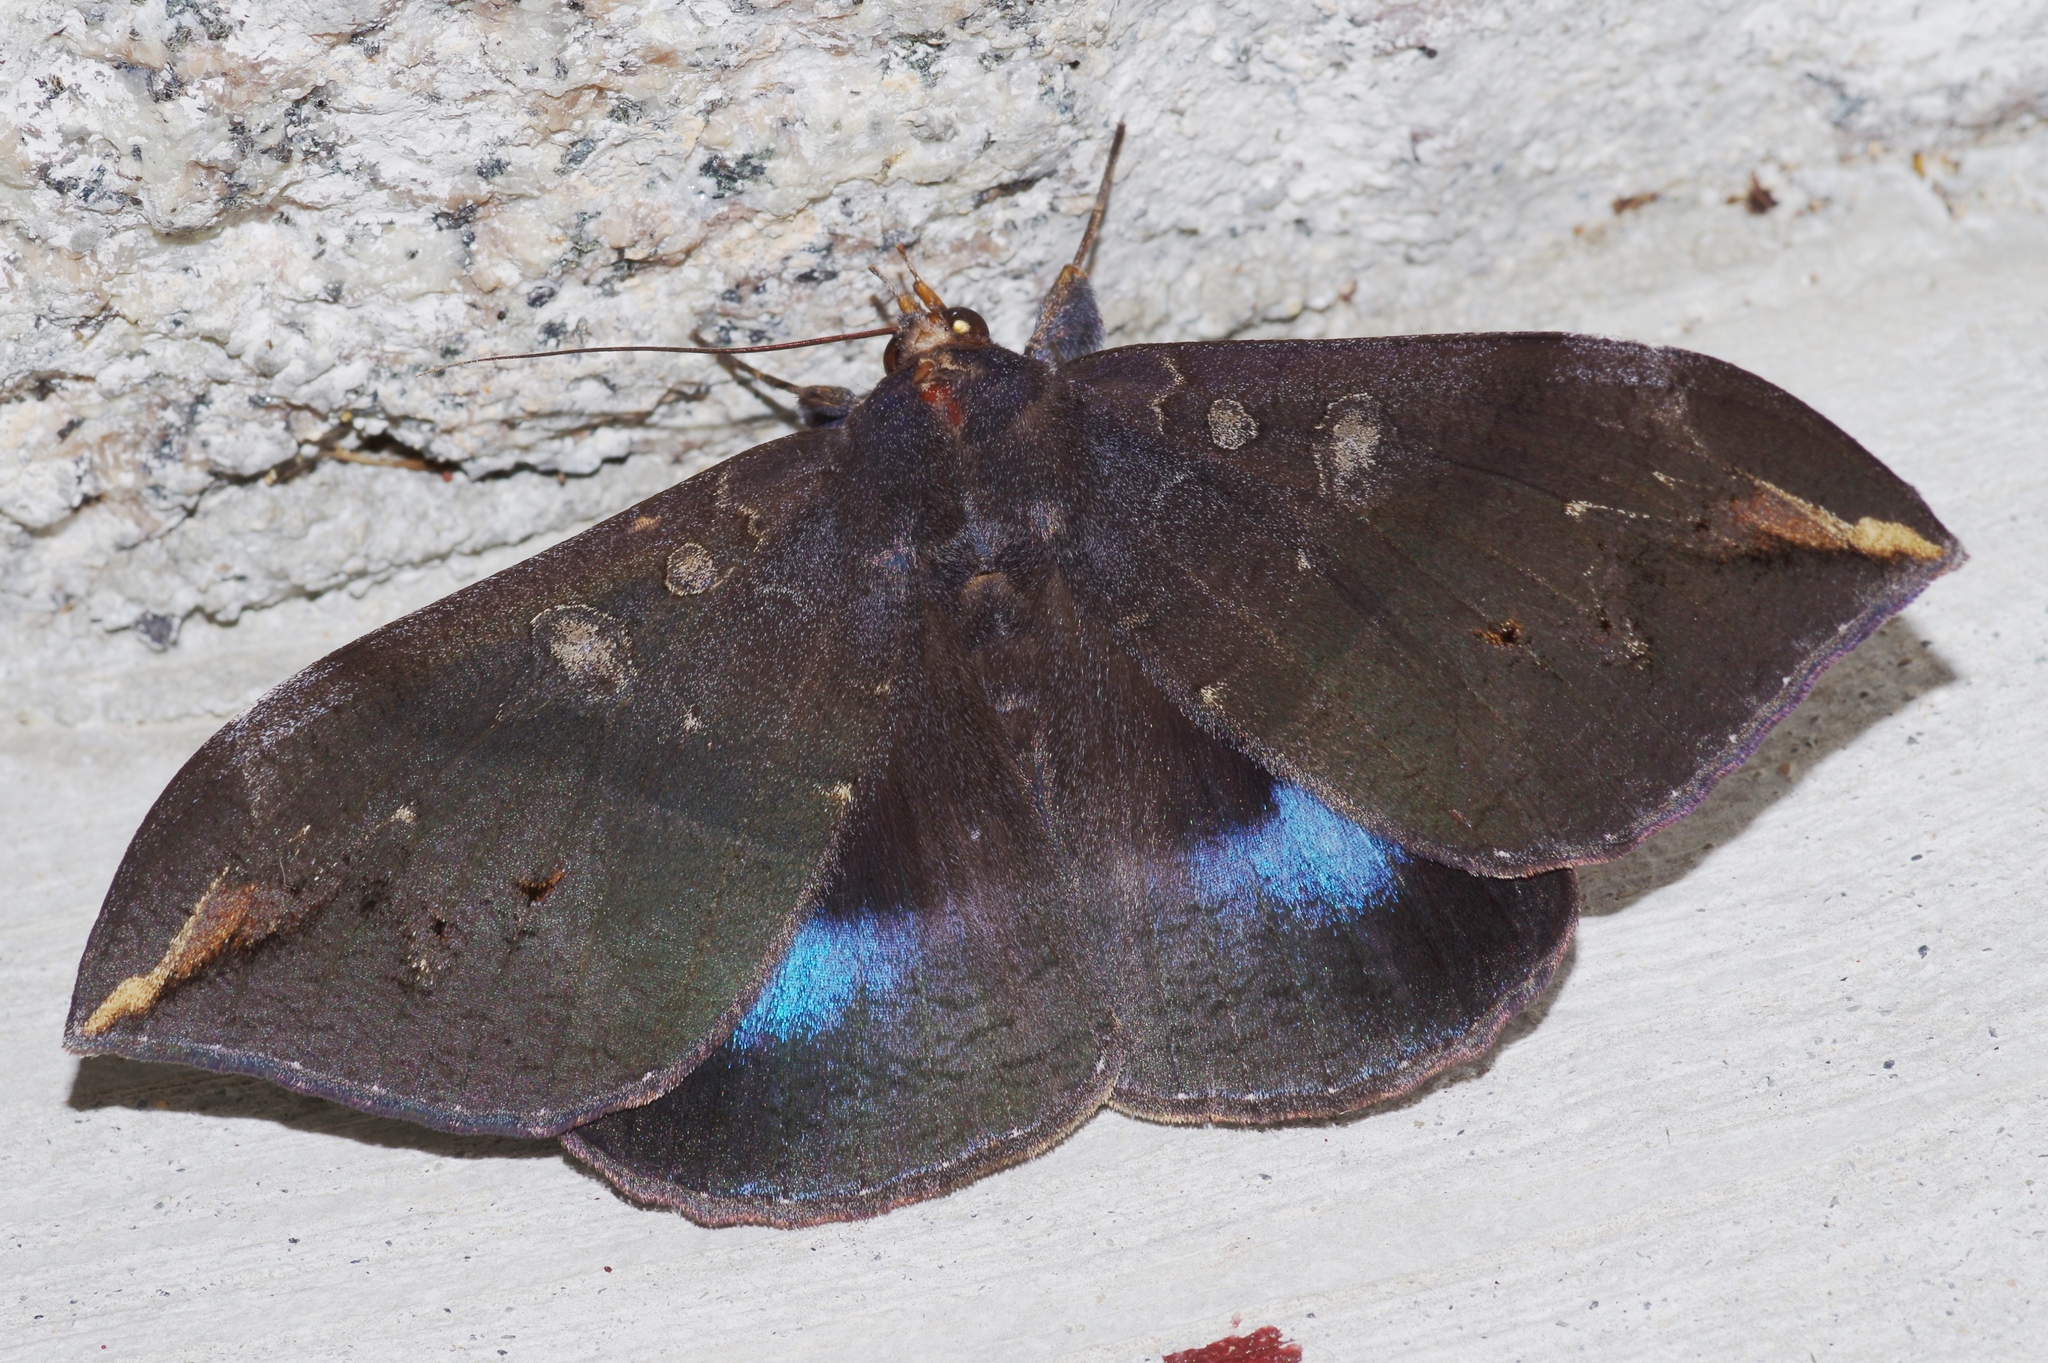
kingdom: Animalia
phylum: Arthropoda
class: Insecta
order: Lepidoptera
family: Erebidae
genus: Ischyja
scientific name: Ischyja ferrifracta
